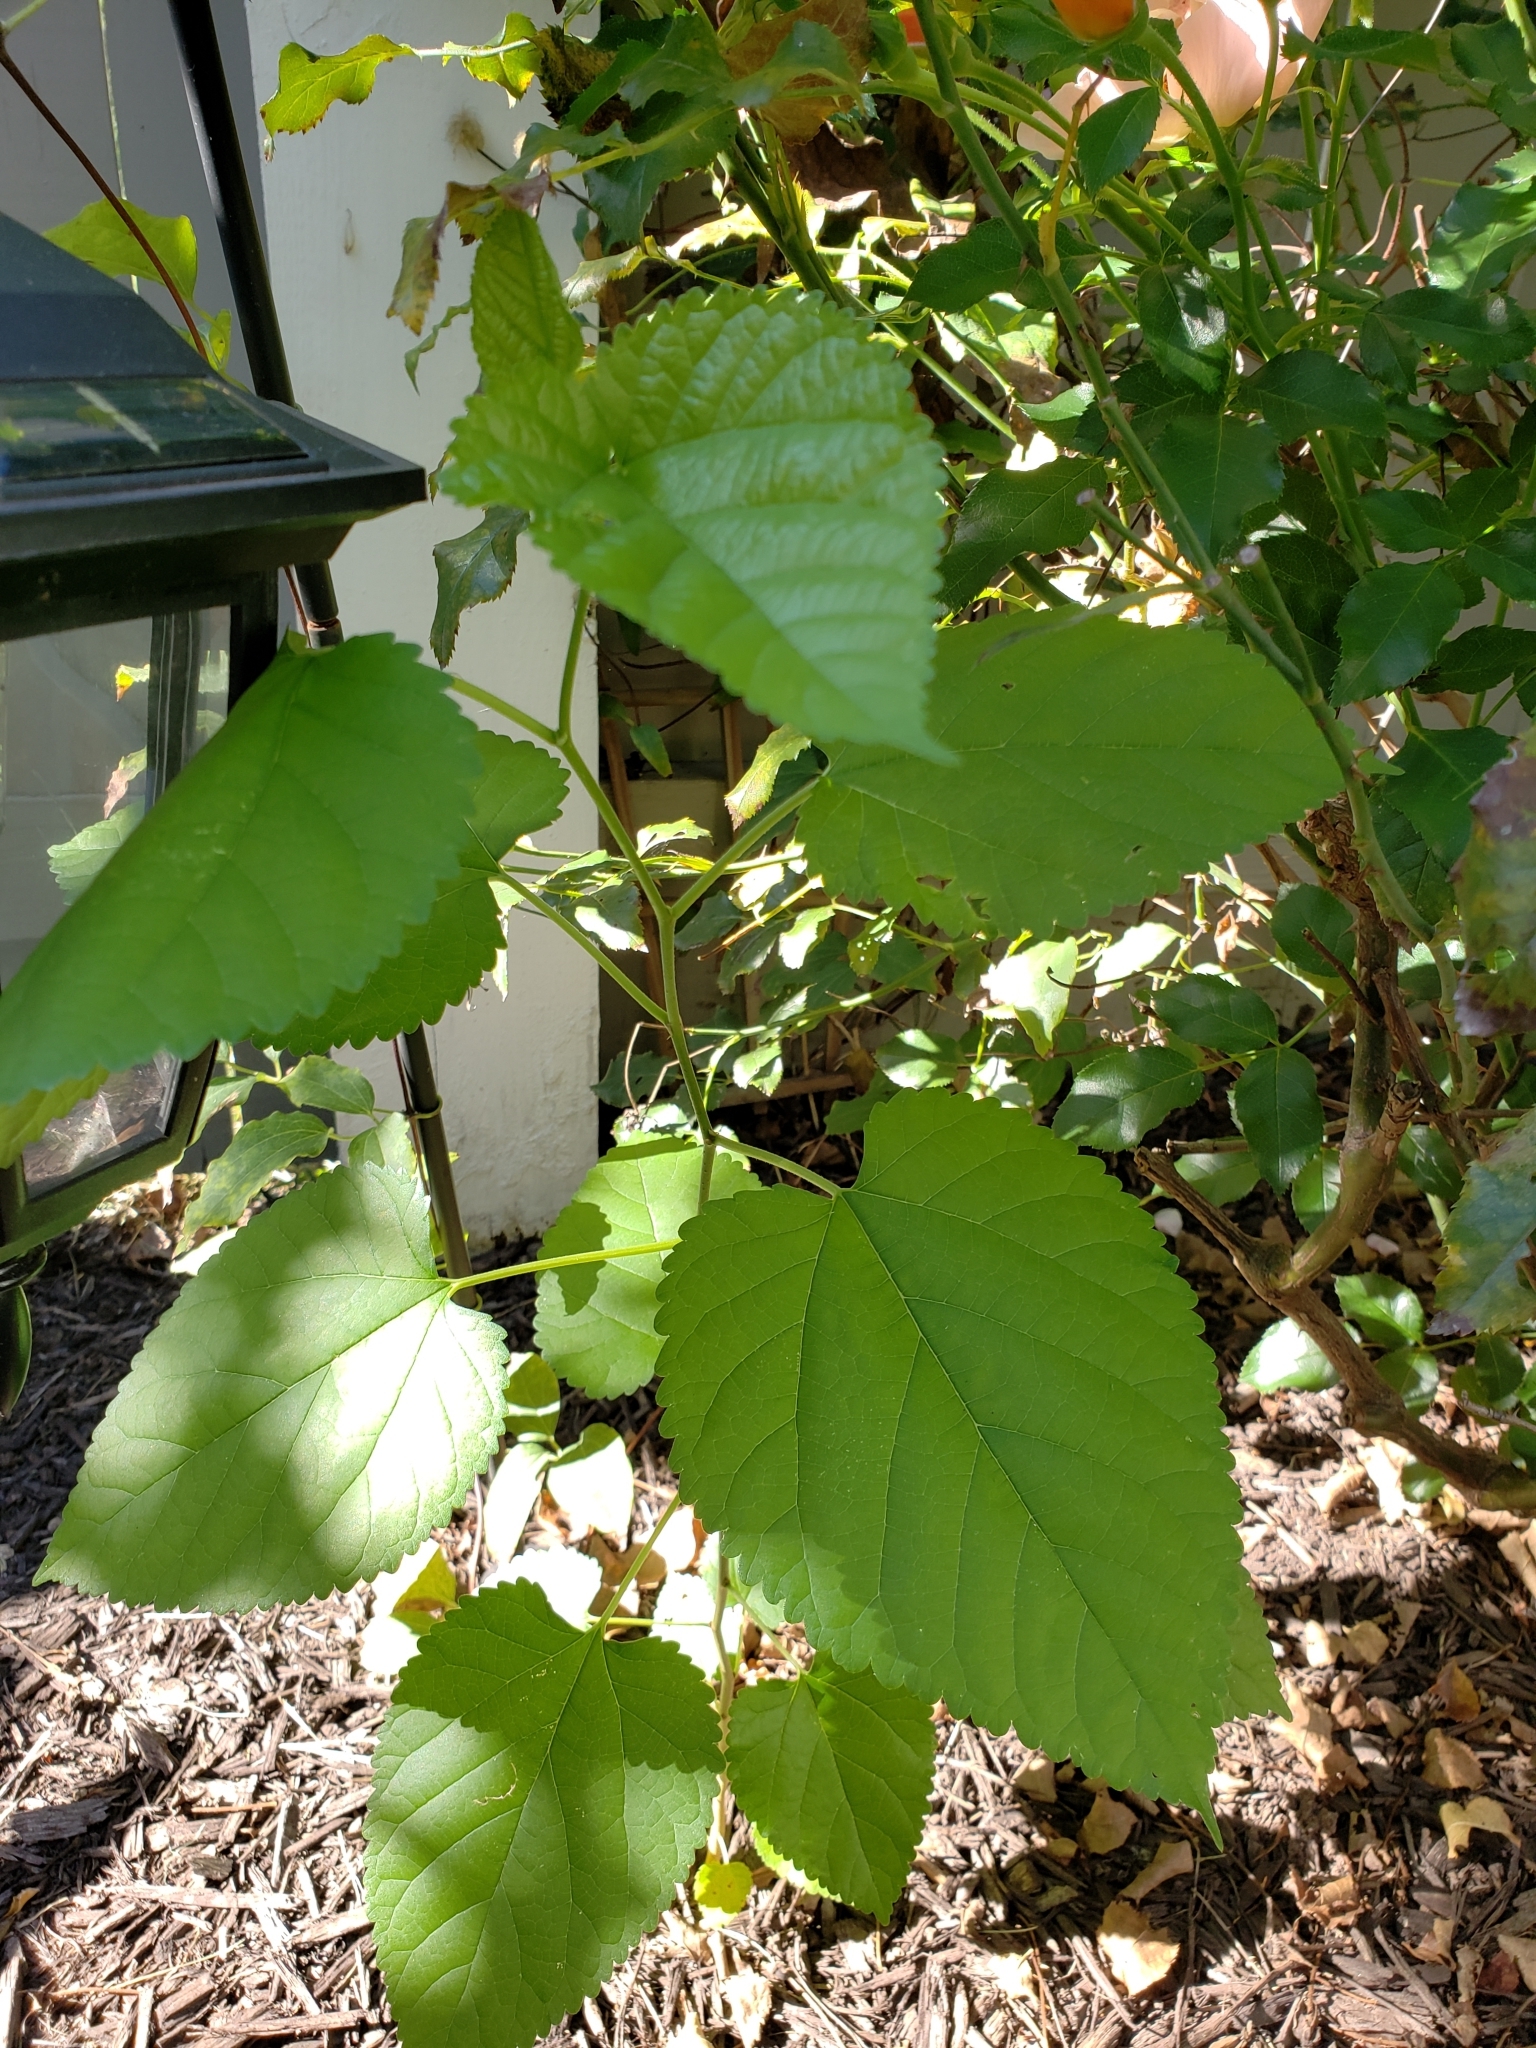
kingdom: Plantae
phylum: Tracheophyta
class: Magnoliopsida
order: Rosales
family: Moraceae
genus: Morus
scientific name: Morus alba
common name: White mulberry
